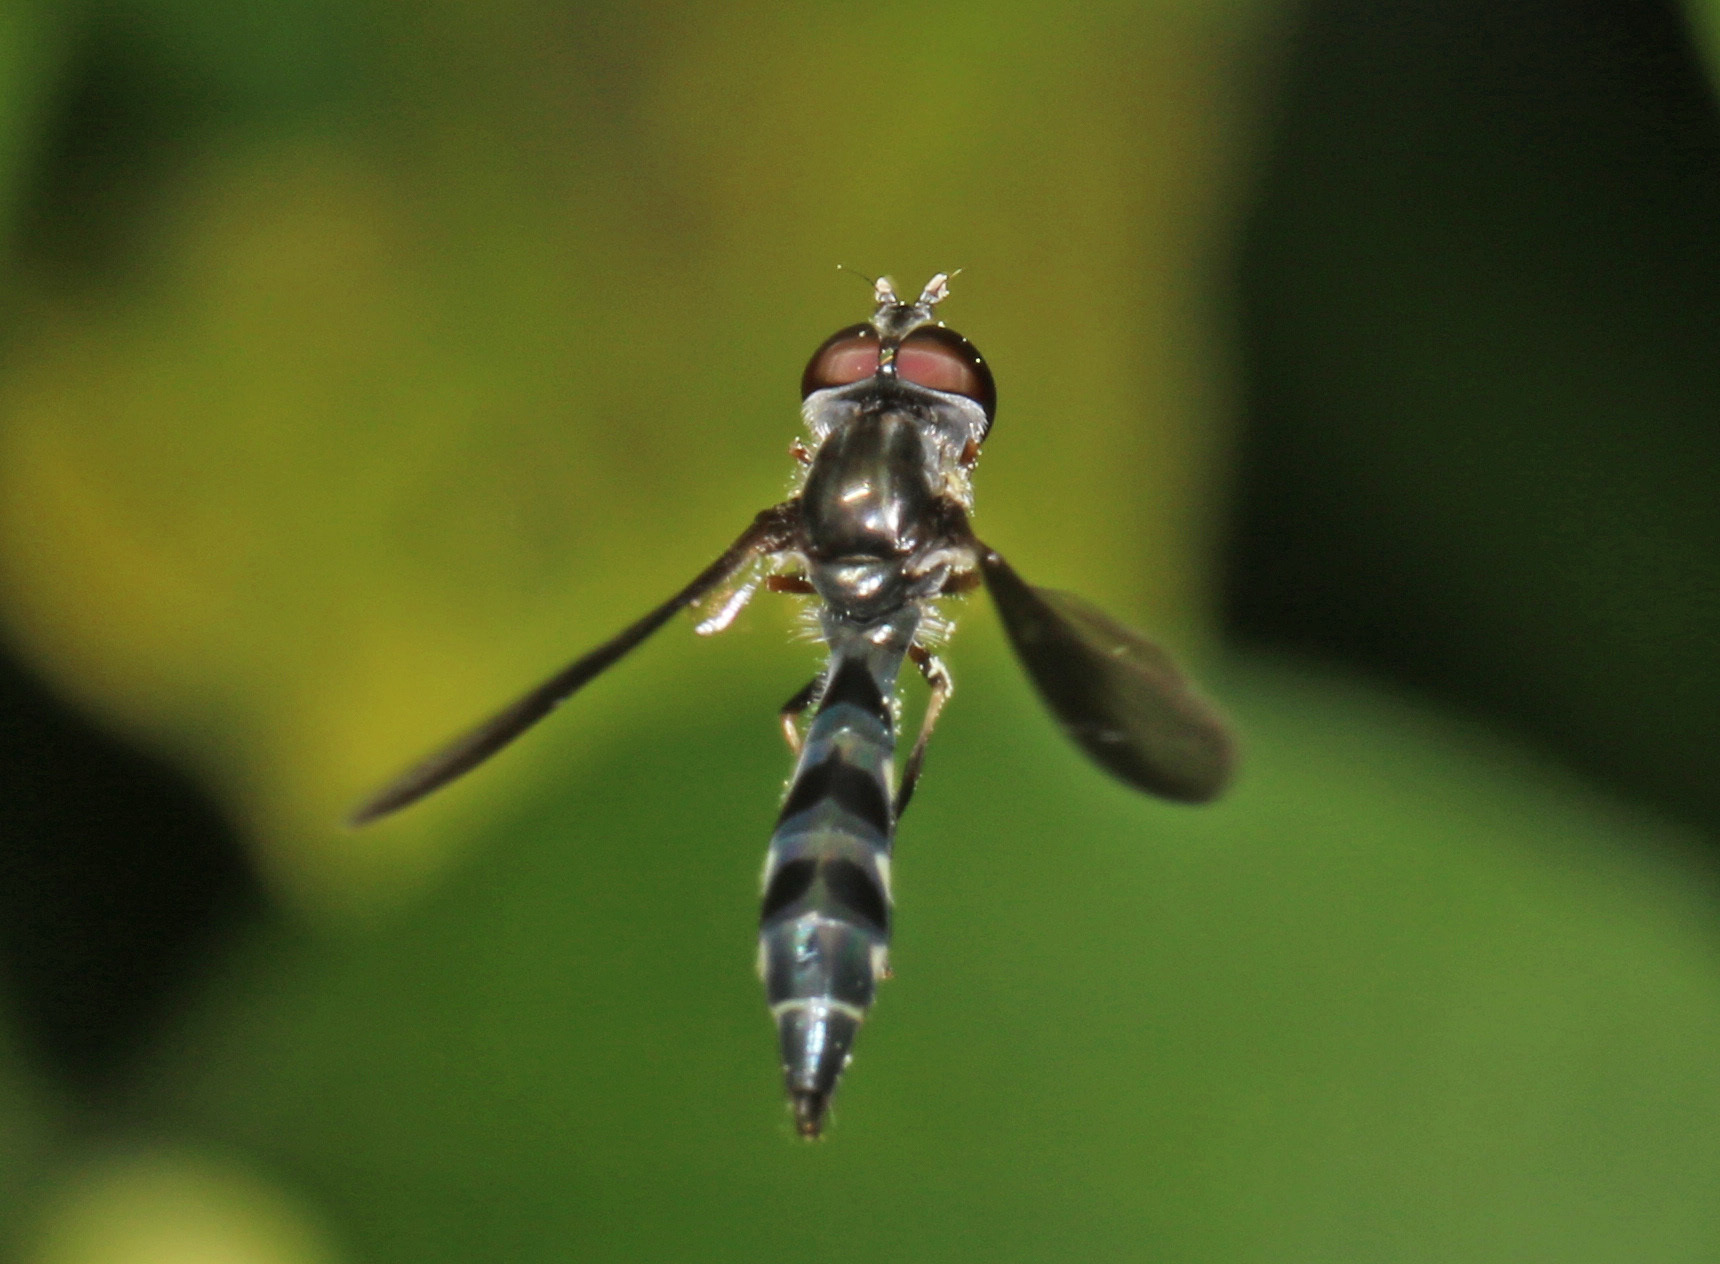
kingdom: Animalia
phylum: Arthropoda
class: Insecta
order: Diptera
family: Syrphidae
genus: Ocyptamus
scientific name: Ocyptamus costatus
